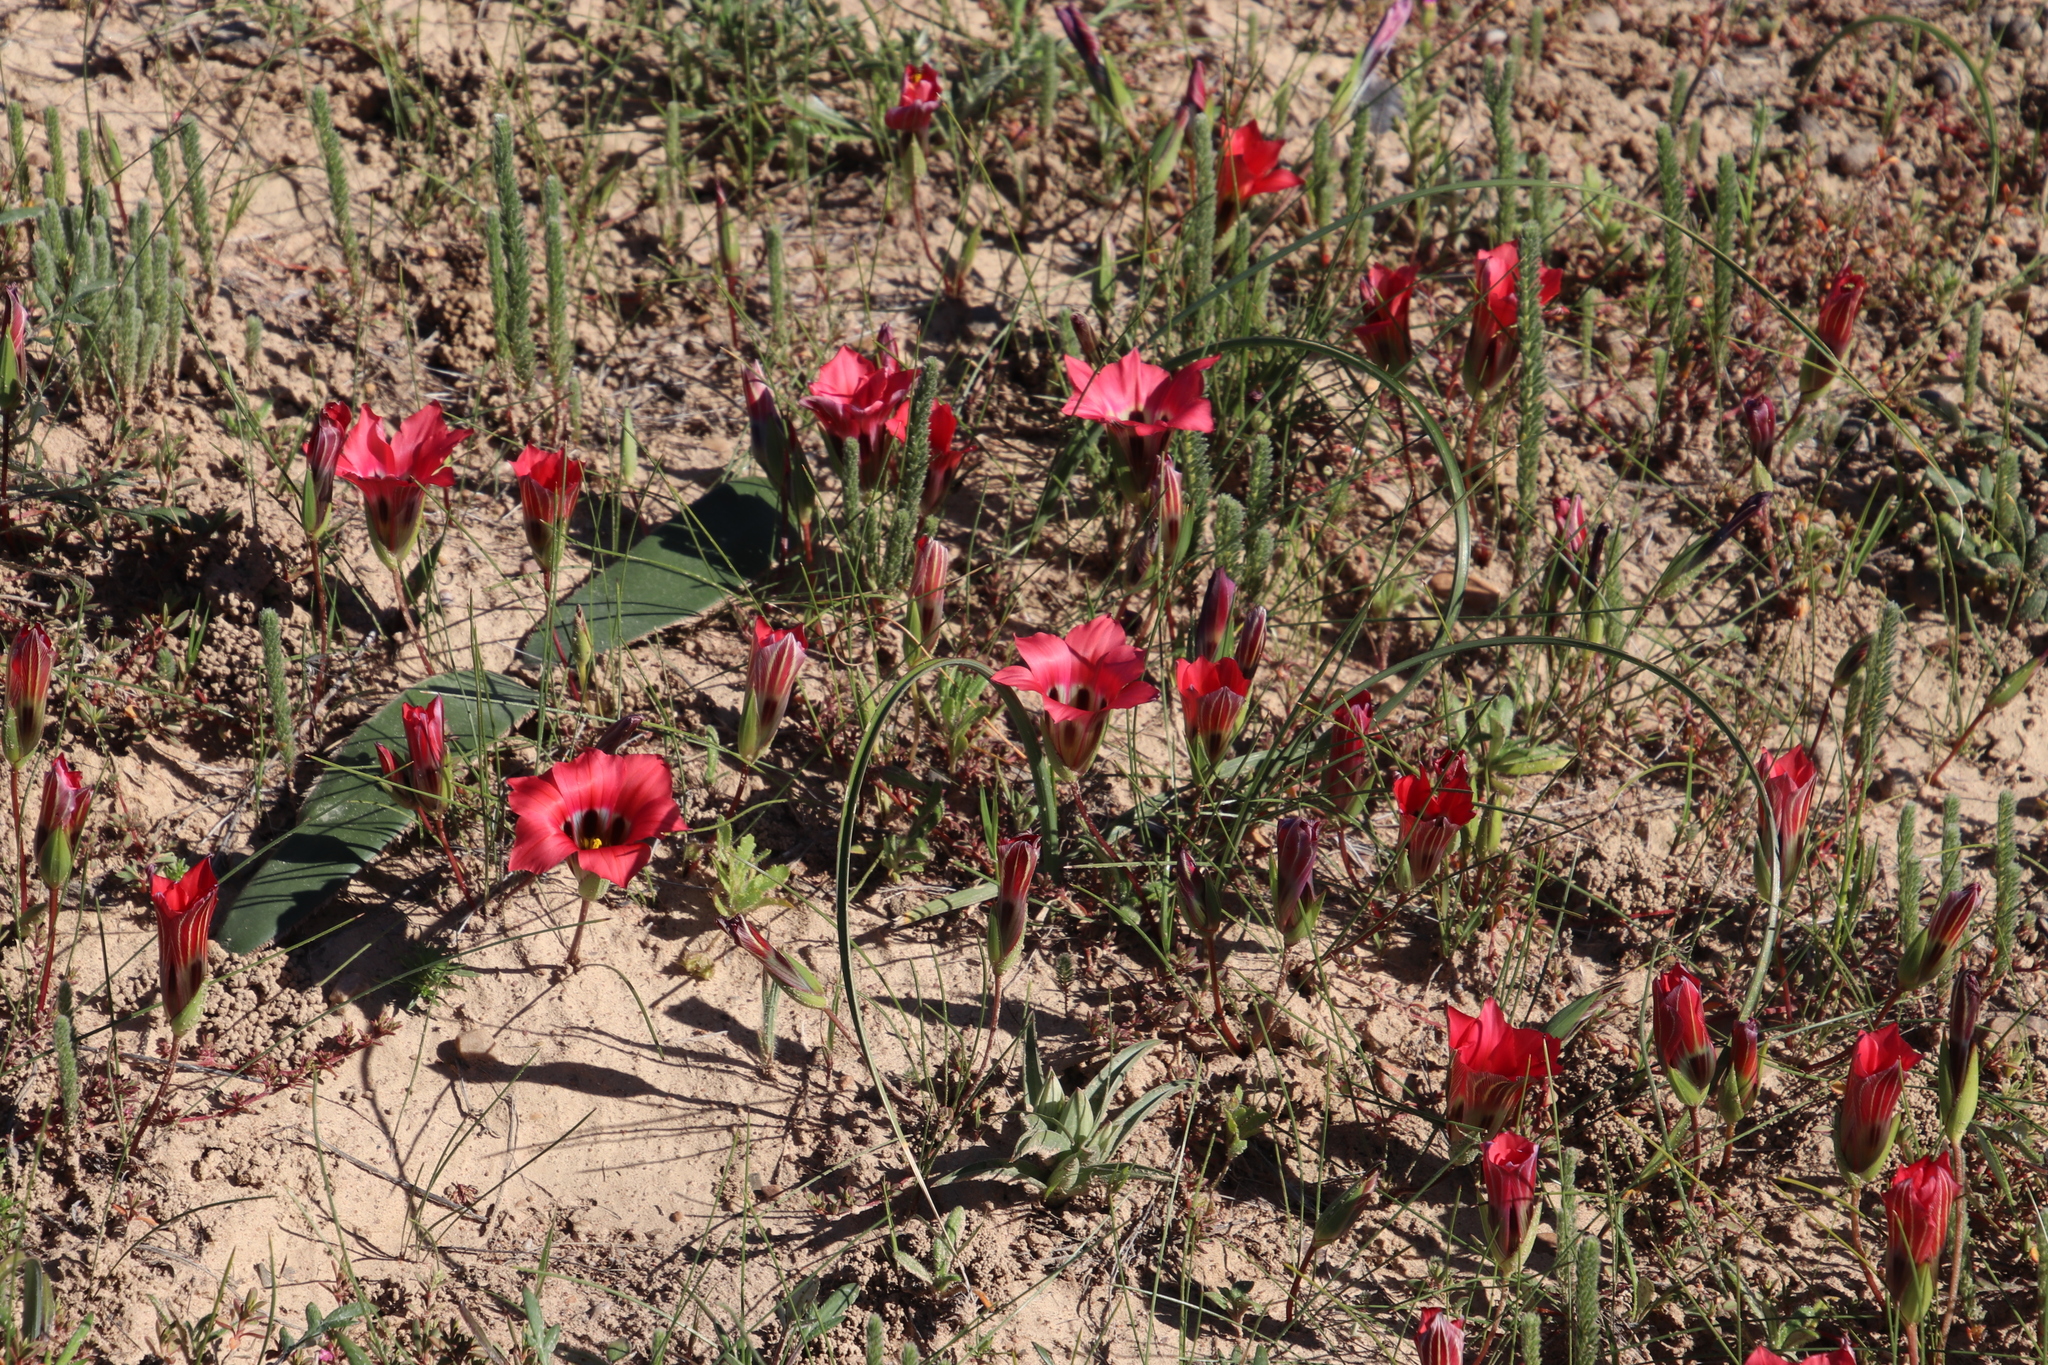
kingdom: Plantae
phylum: Tracheophyta
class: Liliopsida
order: Asparagales
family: Iridaceae
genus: Romulea
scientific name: Romulea sabulosa
